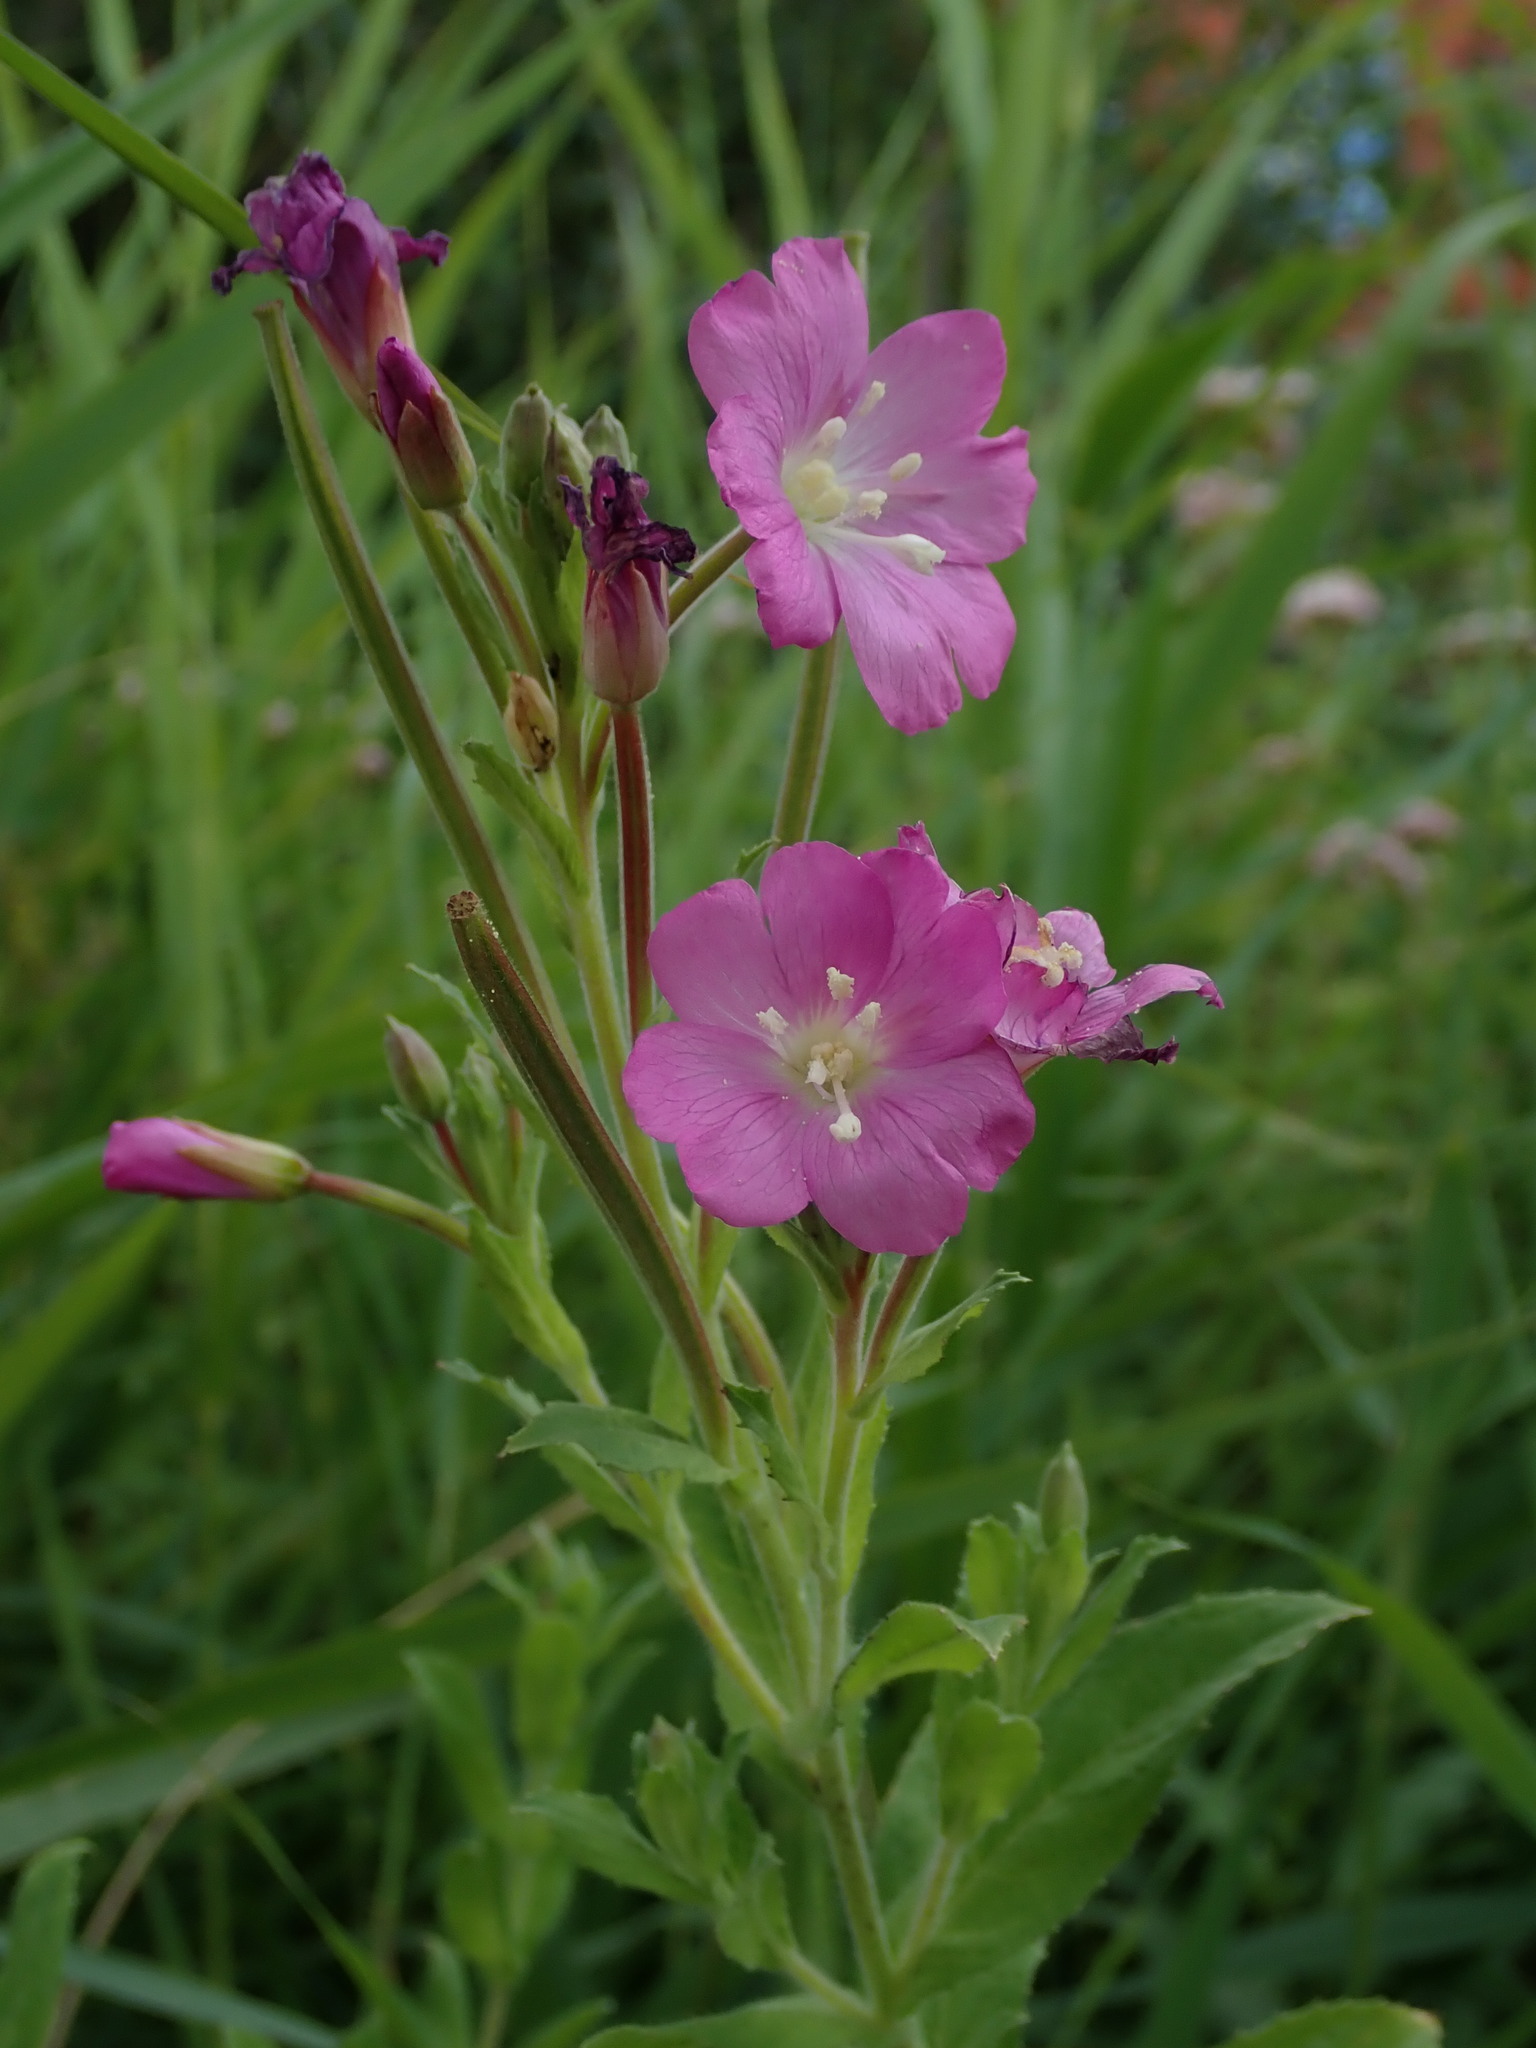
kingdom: Plantae
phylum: Tracheophyta
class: Magnoliopsida
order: Myrtales
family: Onagraceae
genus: Epilobium
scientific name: Epilobium hirsutum
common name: Great willowherb
